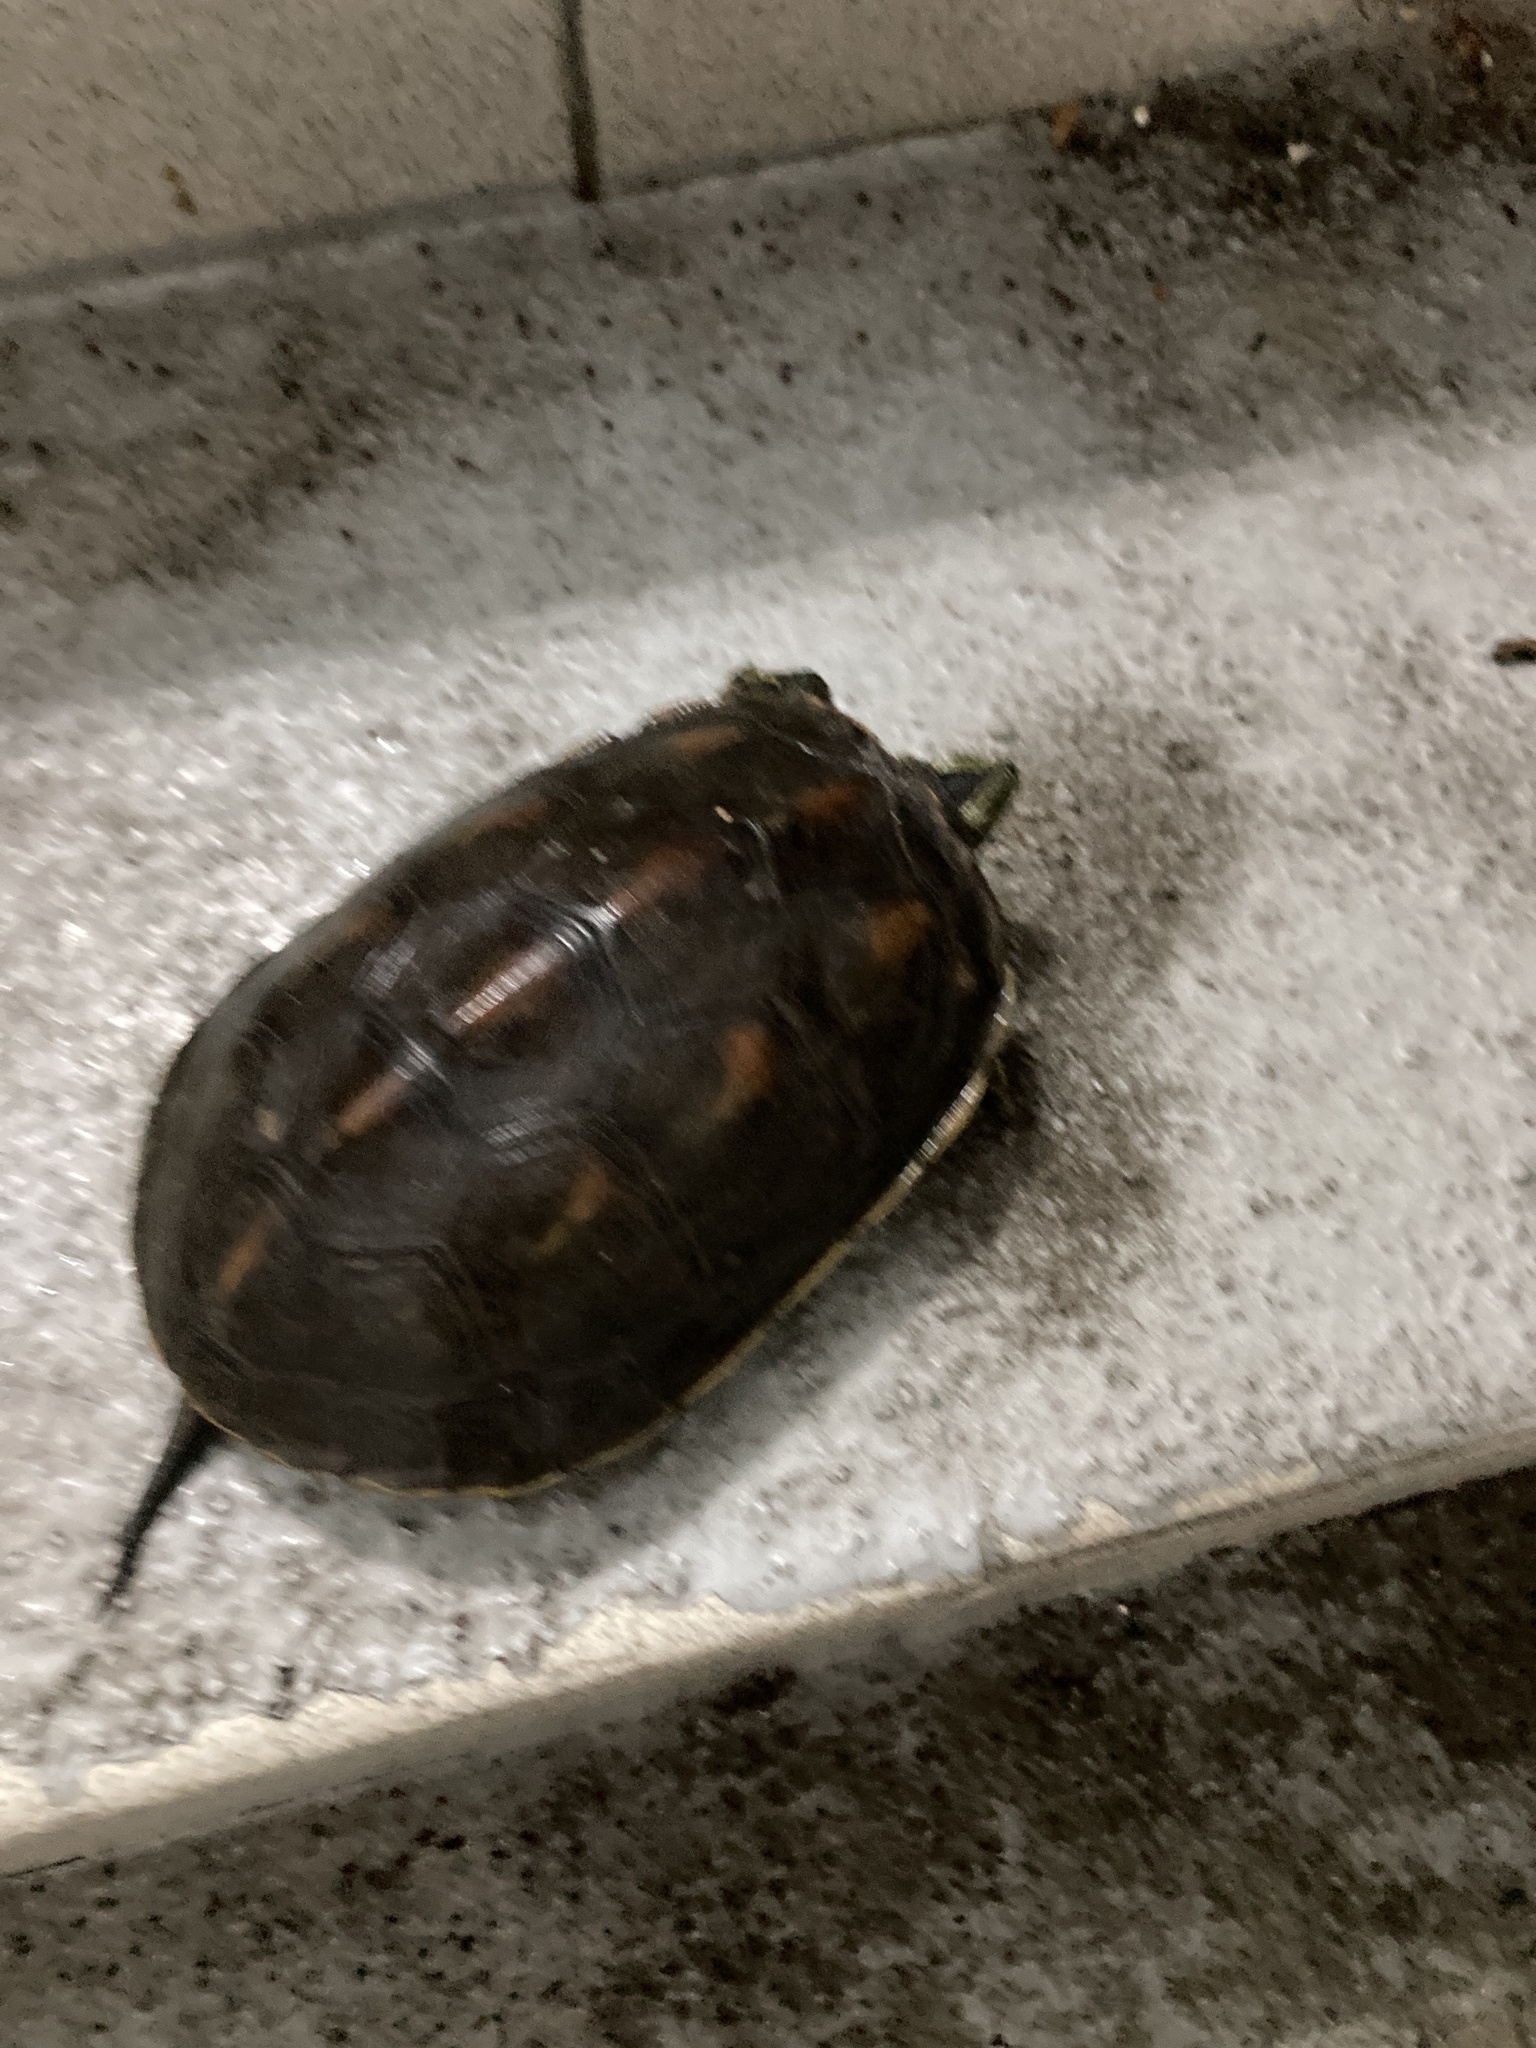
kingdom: Animalia
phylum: Chordata
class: Testudines
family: Geoemydidae
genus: Mauremys
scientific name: Mauremys sinensis
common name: Chinese stripe-necked turtle
